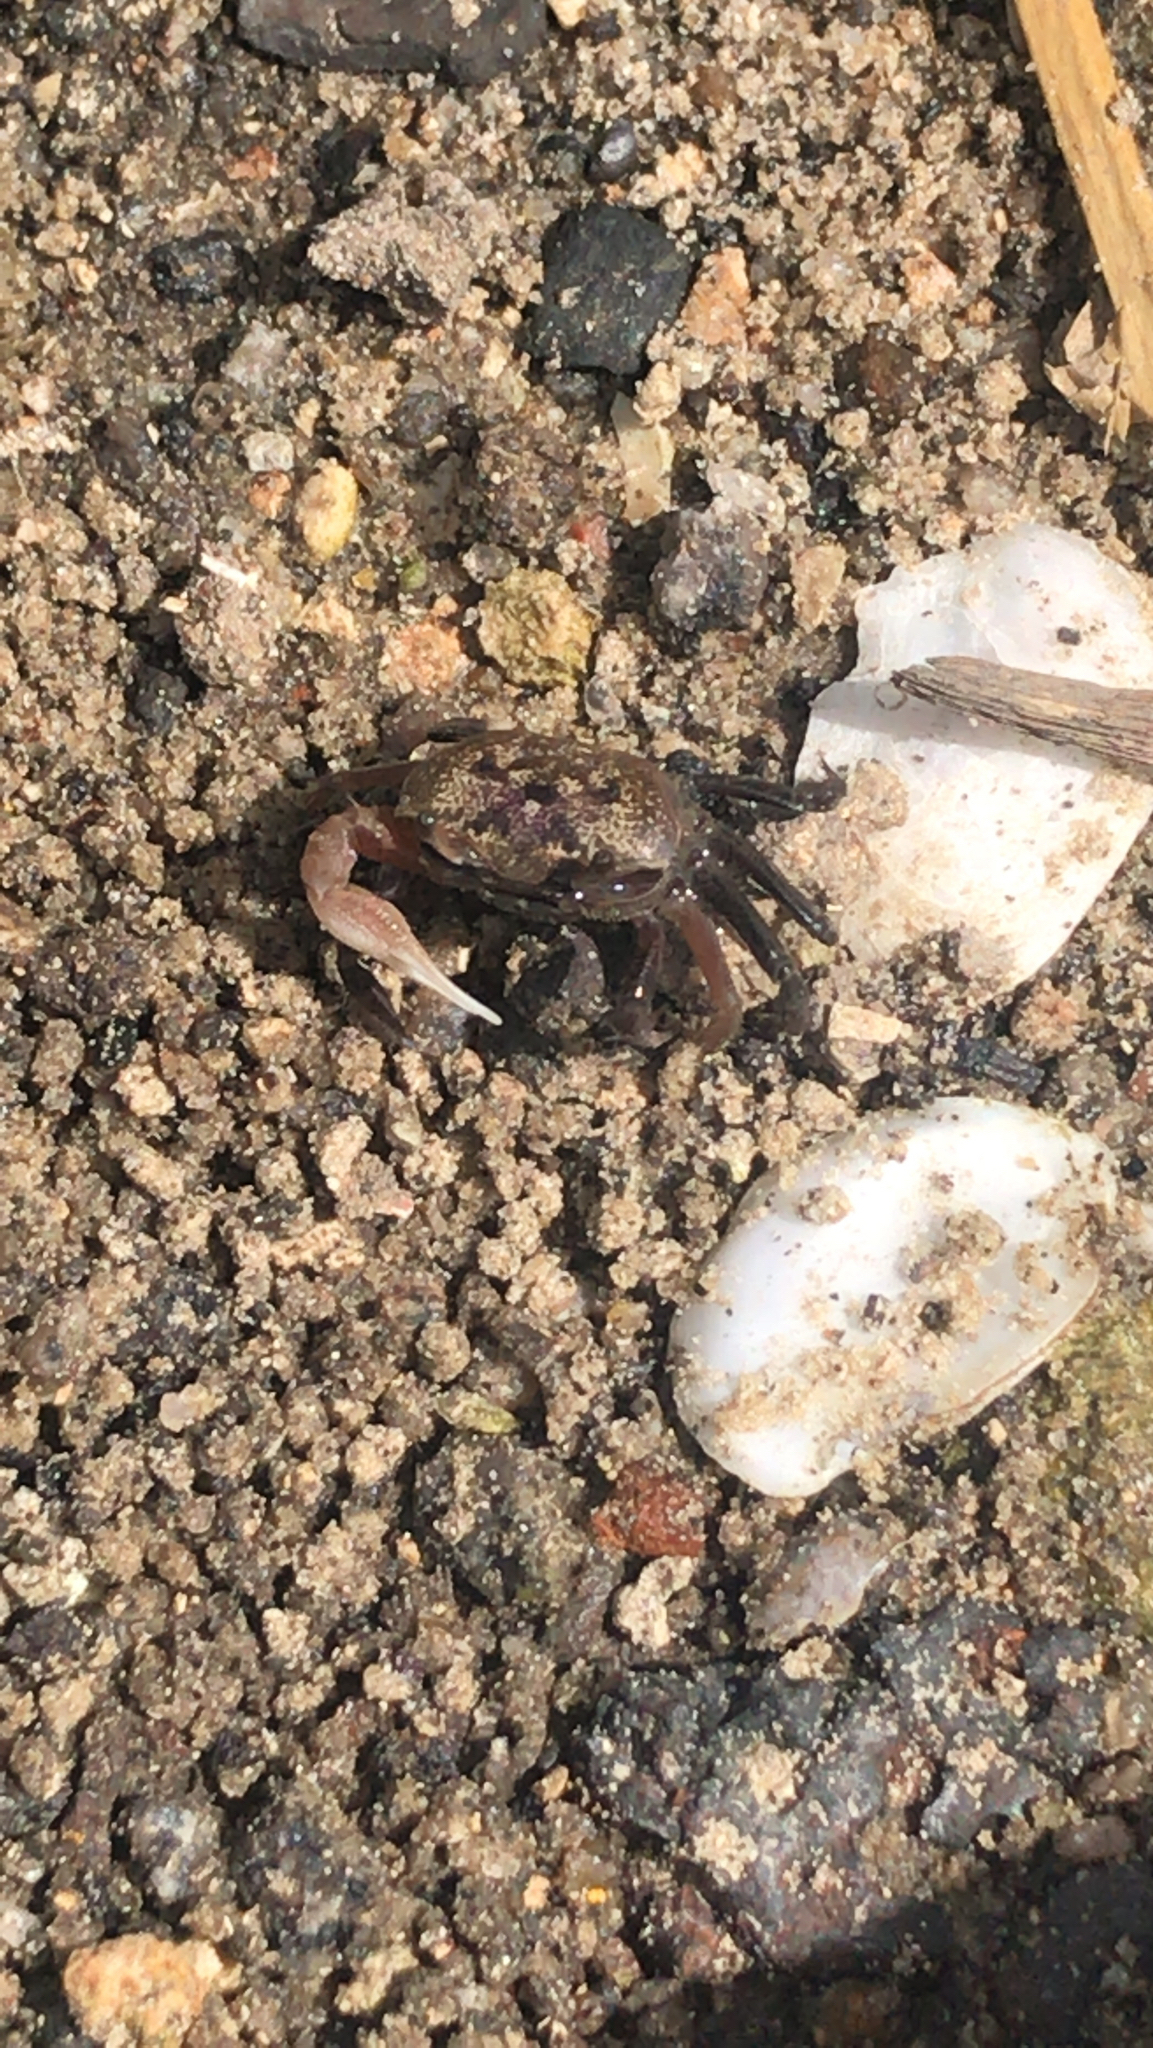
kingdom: Animalia
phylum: Arthropoda
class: Malacostraca
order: Decapoda
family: Ocypodidae
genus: Leptuca
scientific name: Leptuca pugilator
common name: Atlantic sand fiddler crab
